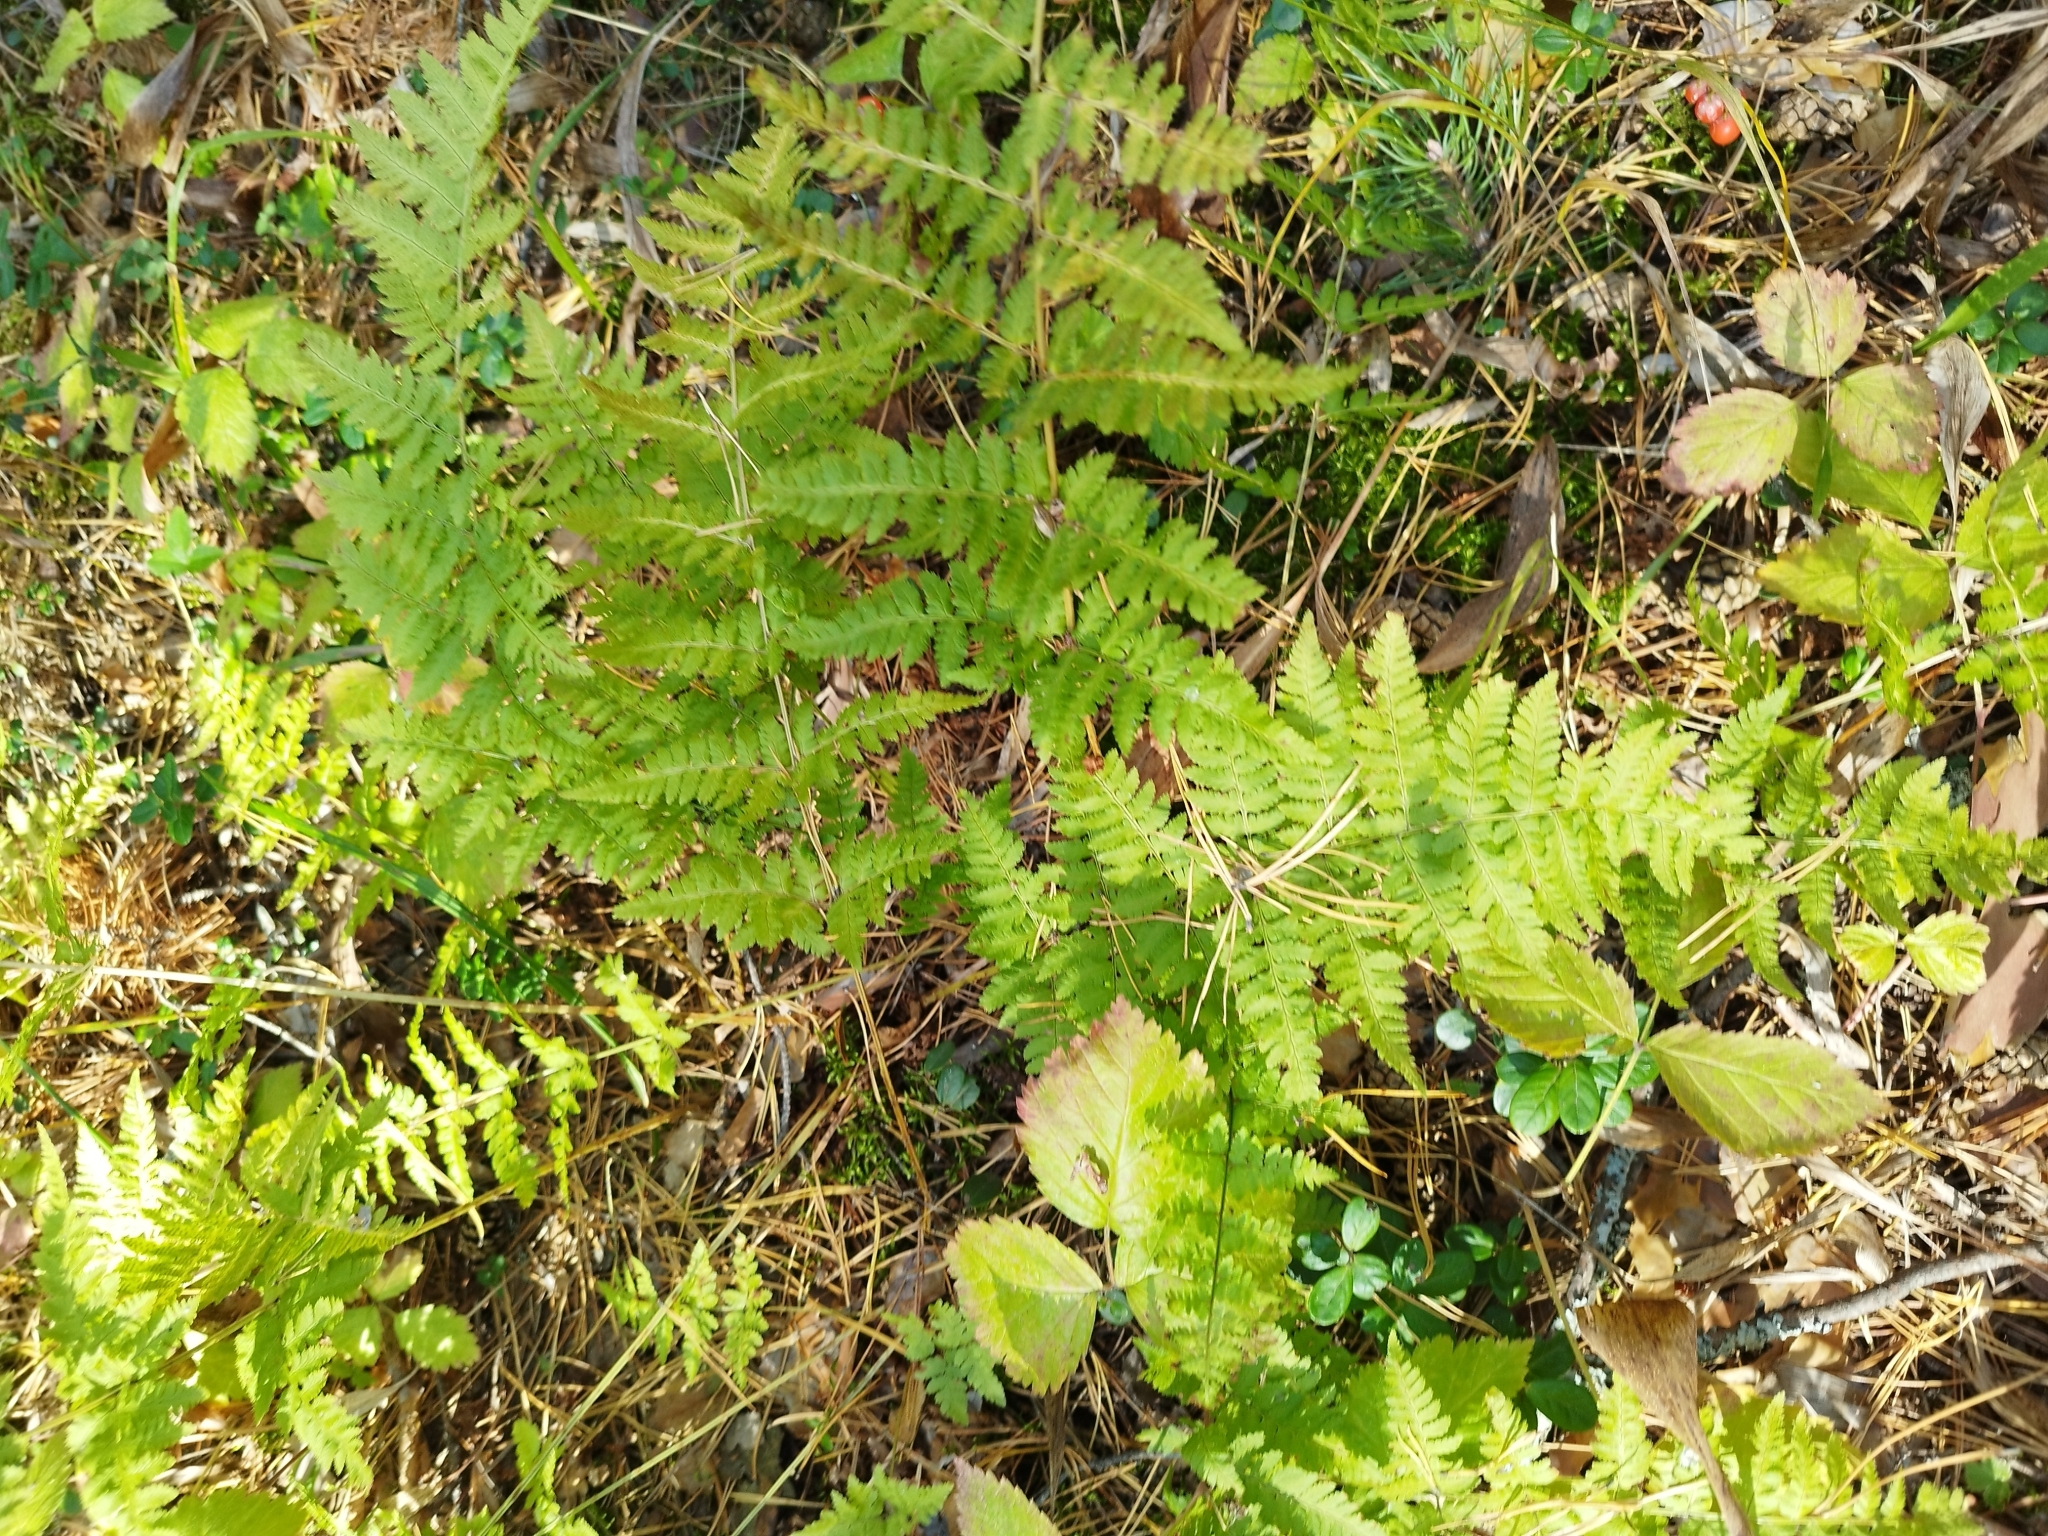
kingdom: Plantae
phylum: Tracheophyta
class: Polypodiopsida
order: Polypodiales
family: Dryopteridaceae
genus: Dryopteris
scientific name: Dryopteris carthusiana
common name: Narrow buckler-fern
